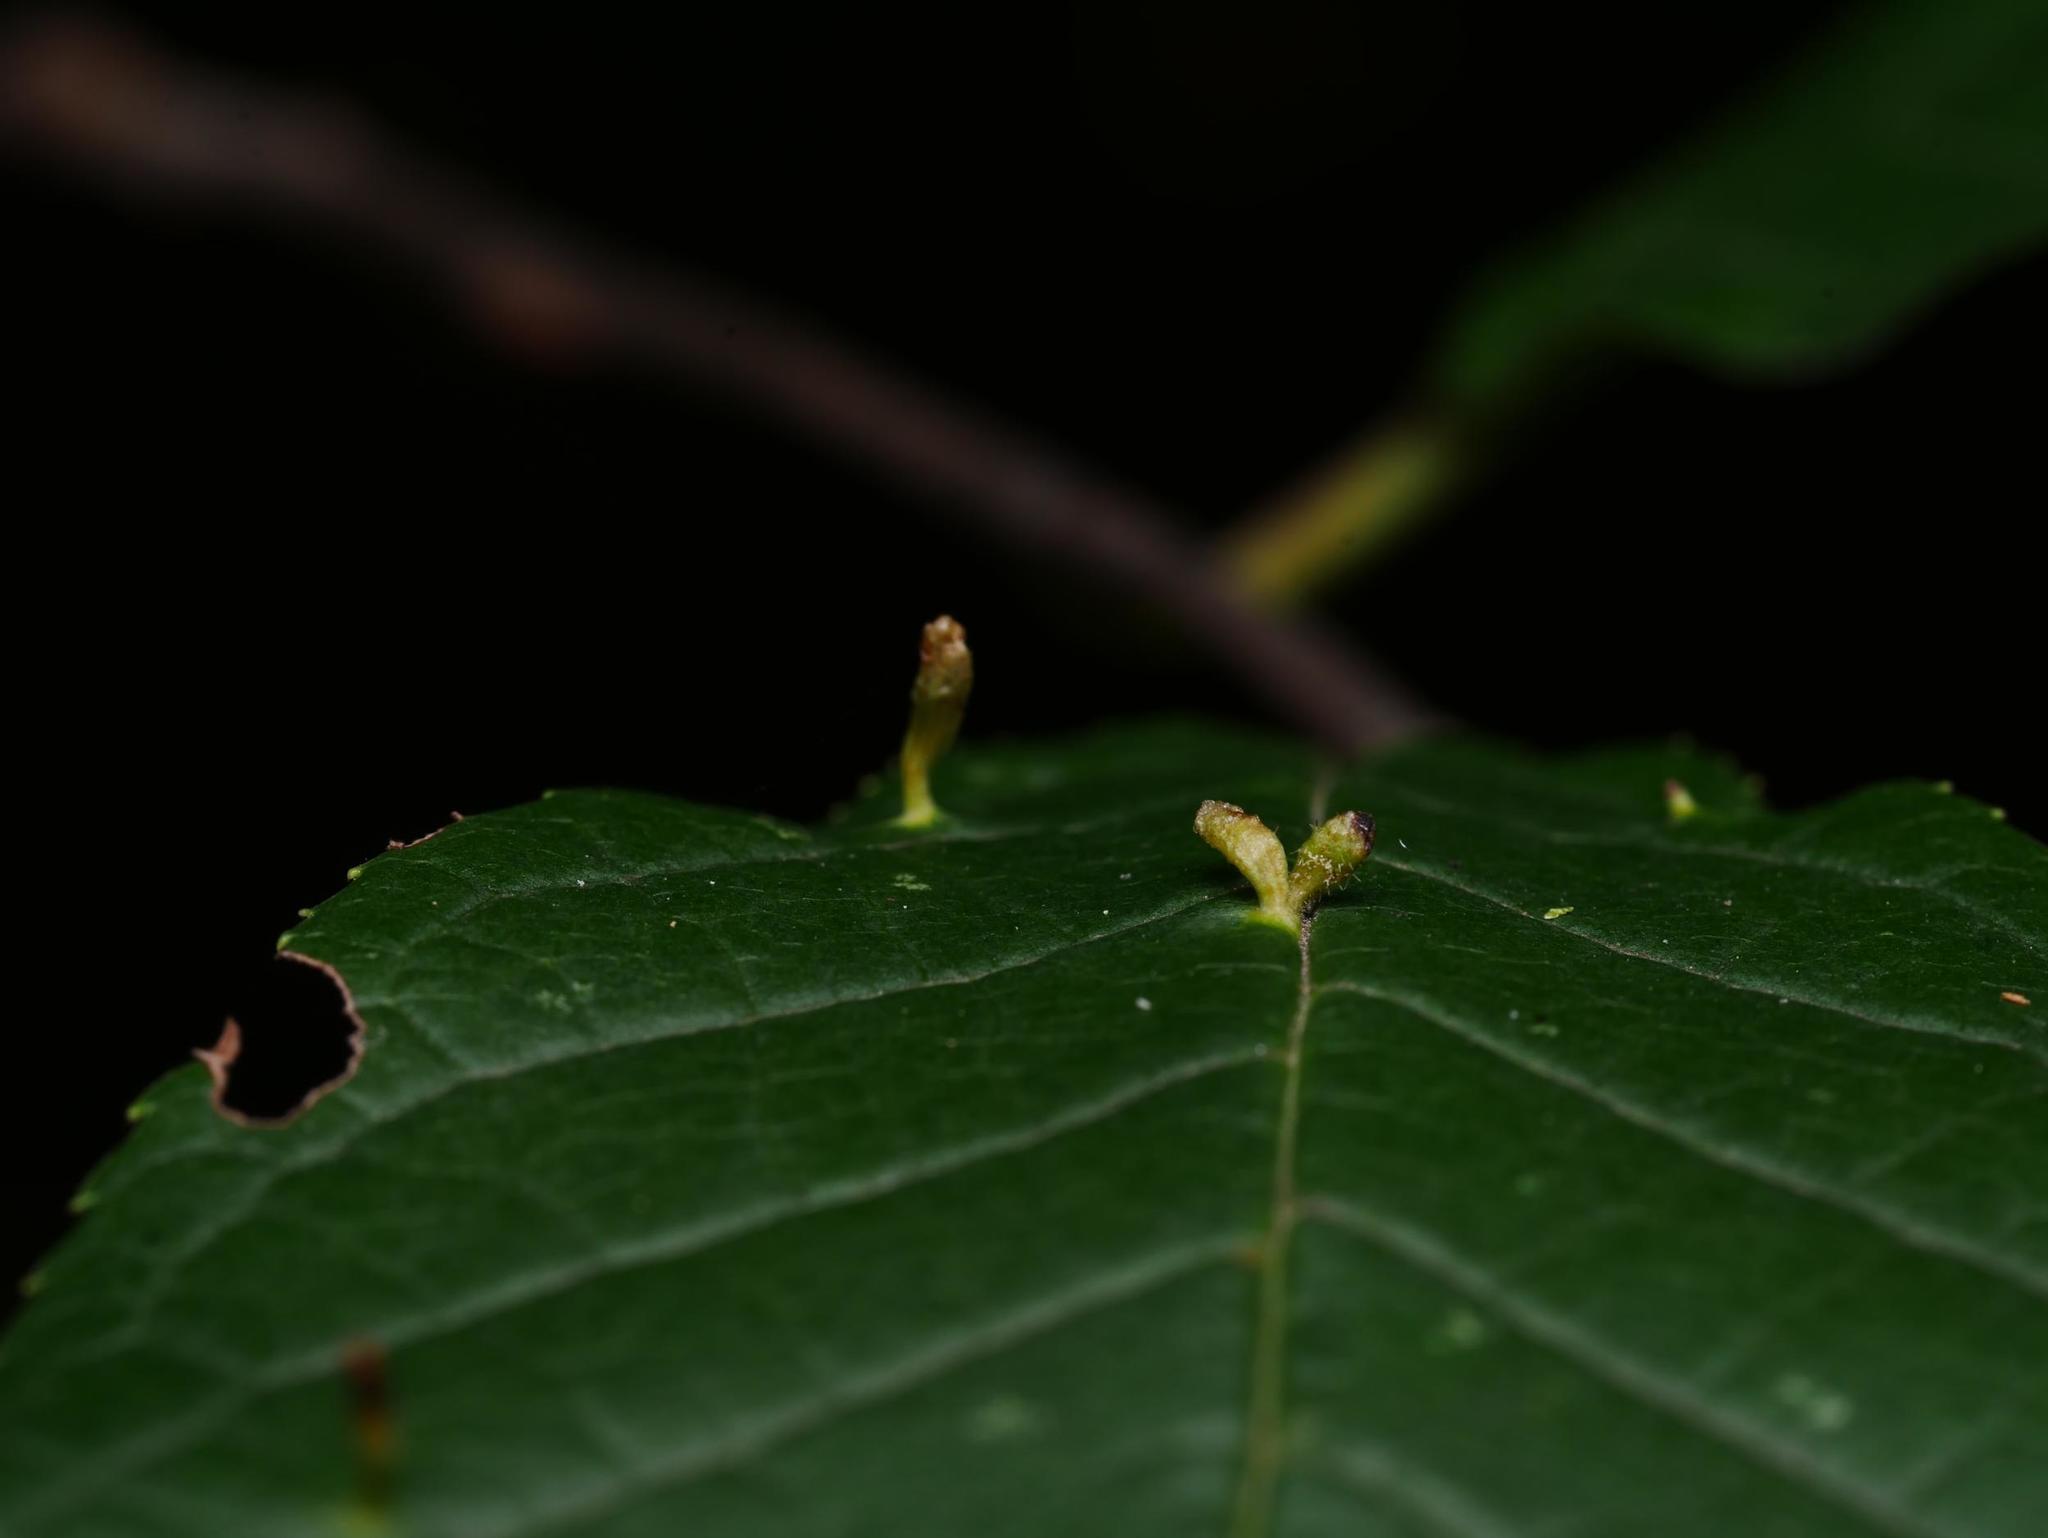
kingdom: Animalia
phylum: Arthropoda
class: Arachnida
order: Trombidiformes
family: Eriophyidae
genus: Phyllocoptes
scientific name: Phyllocoptes eupadi
